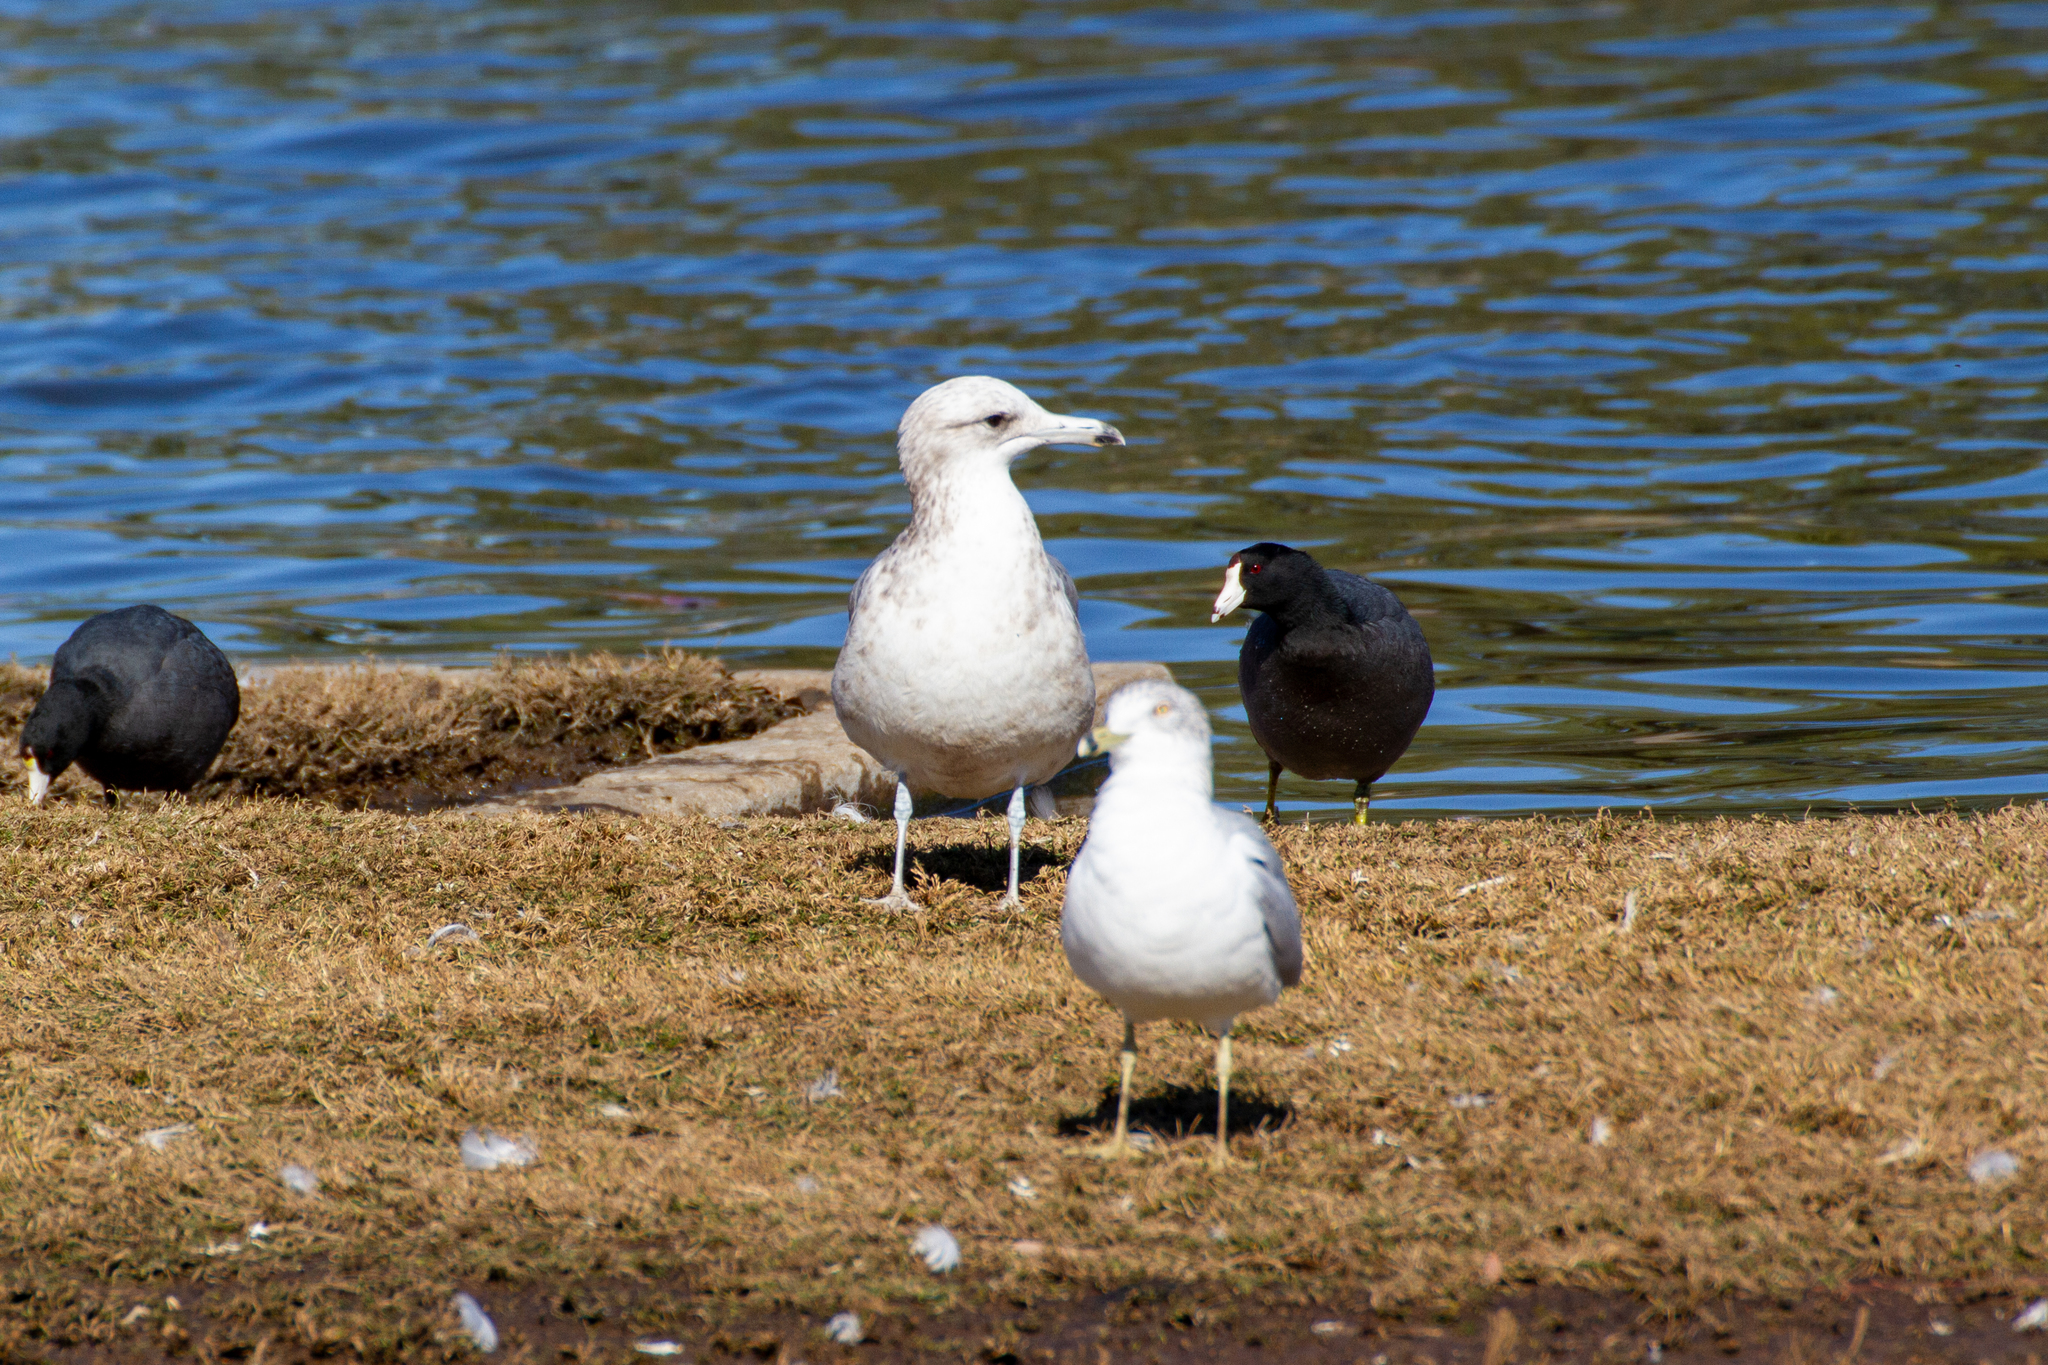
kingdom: Animalia
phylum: Chordata
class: Aves
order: Charadriiformes
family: Laridae
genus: Larus
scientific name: Larus californicus
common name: California gull
